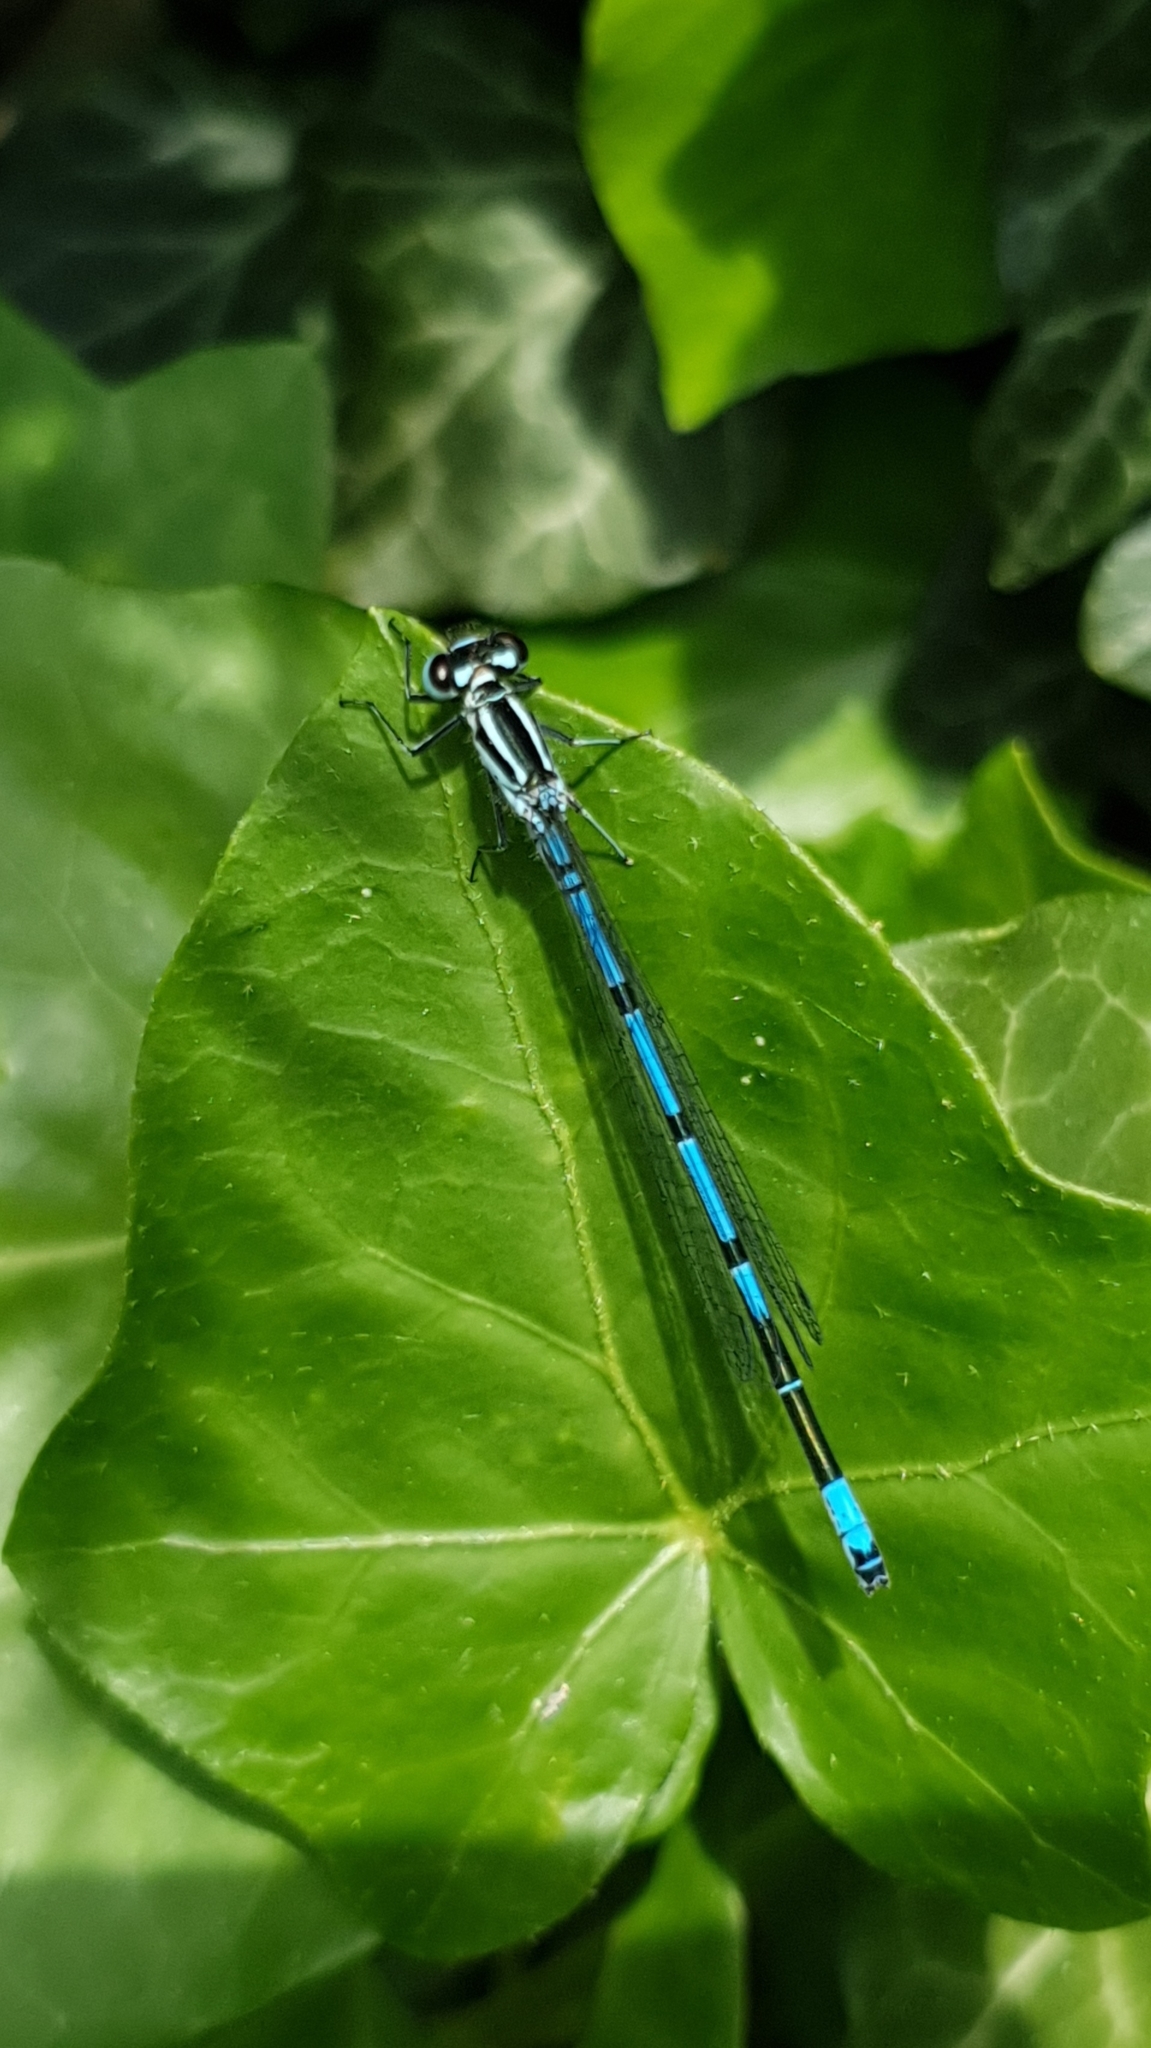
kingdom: Animalia
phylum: Arthropoda
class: Insecta
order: Odonata
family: Coenagrionidae
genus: Coenagrion
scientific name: Coenagrion puella
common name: Azure damselfly
